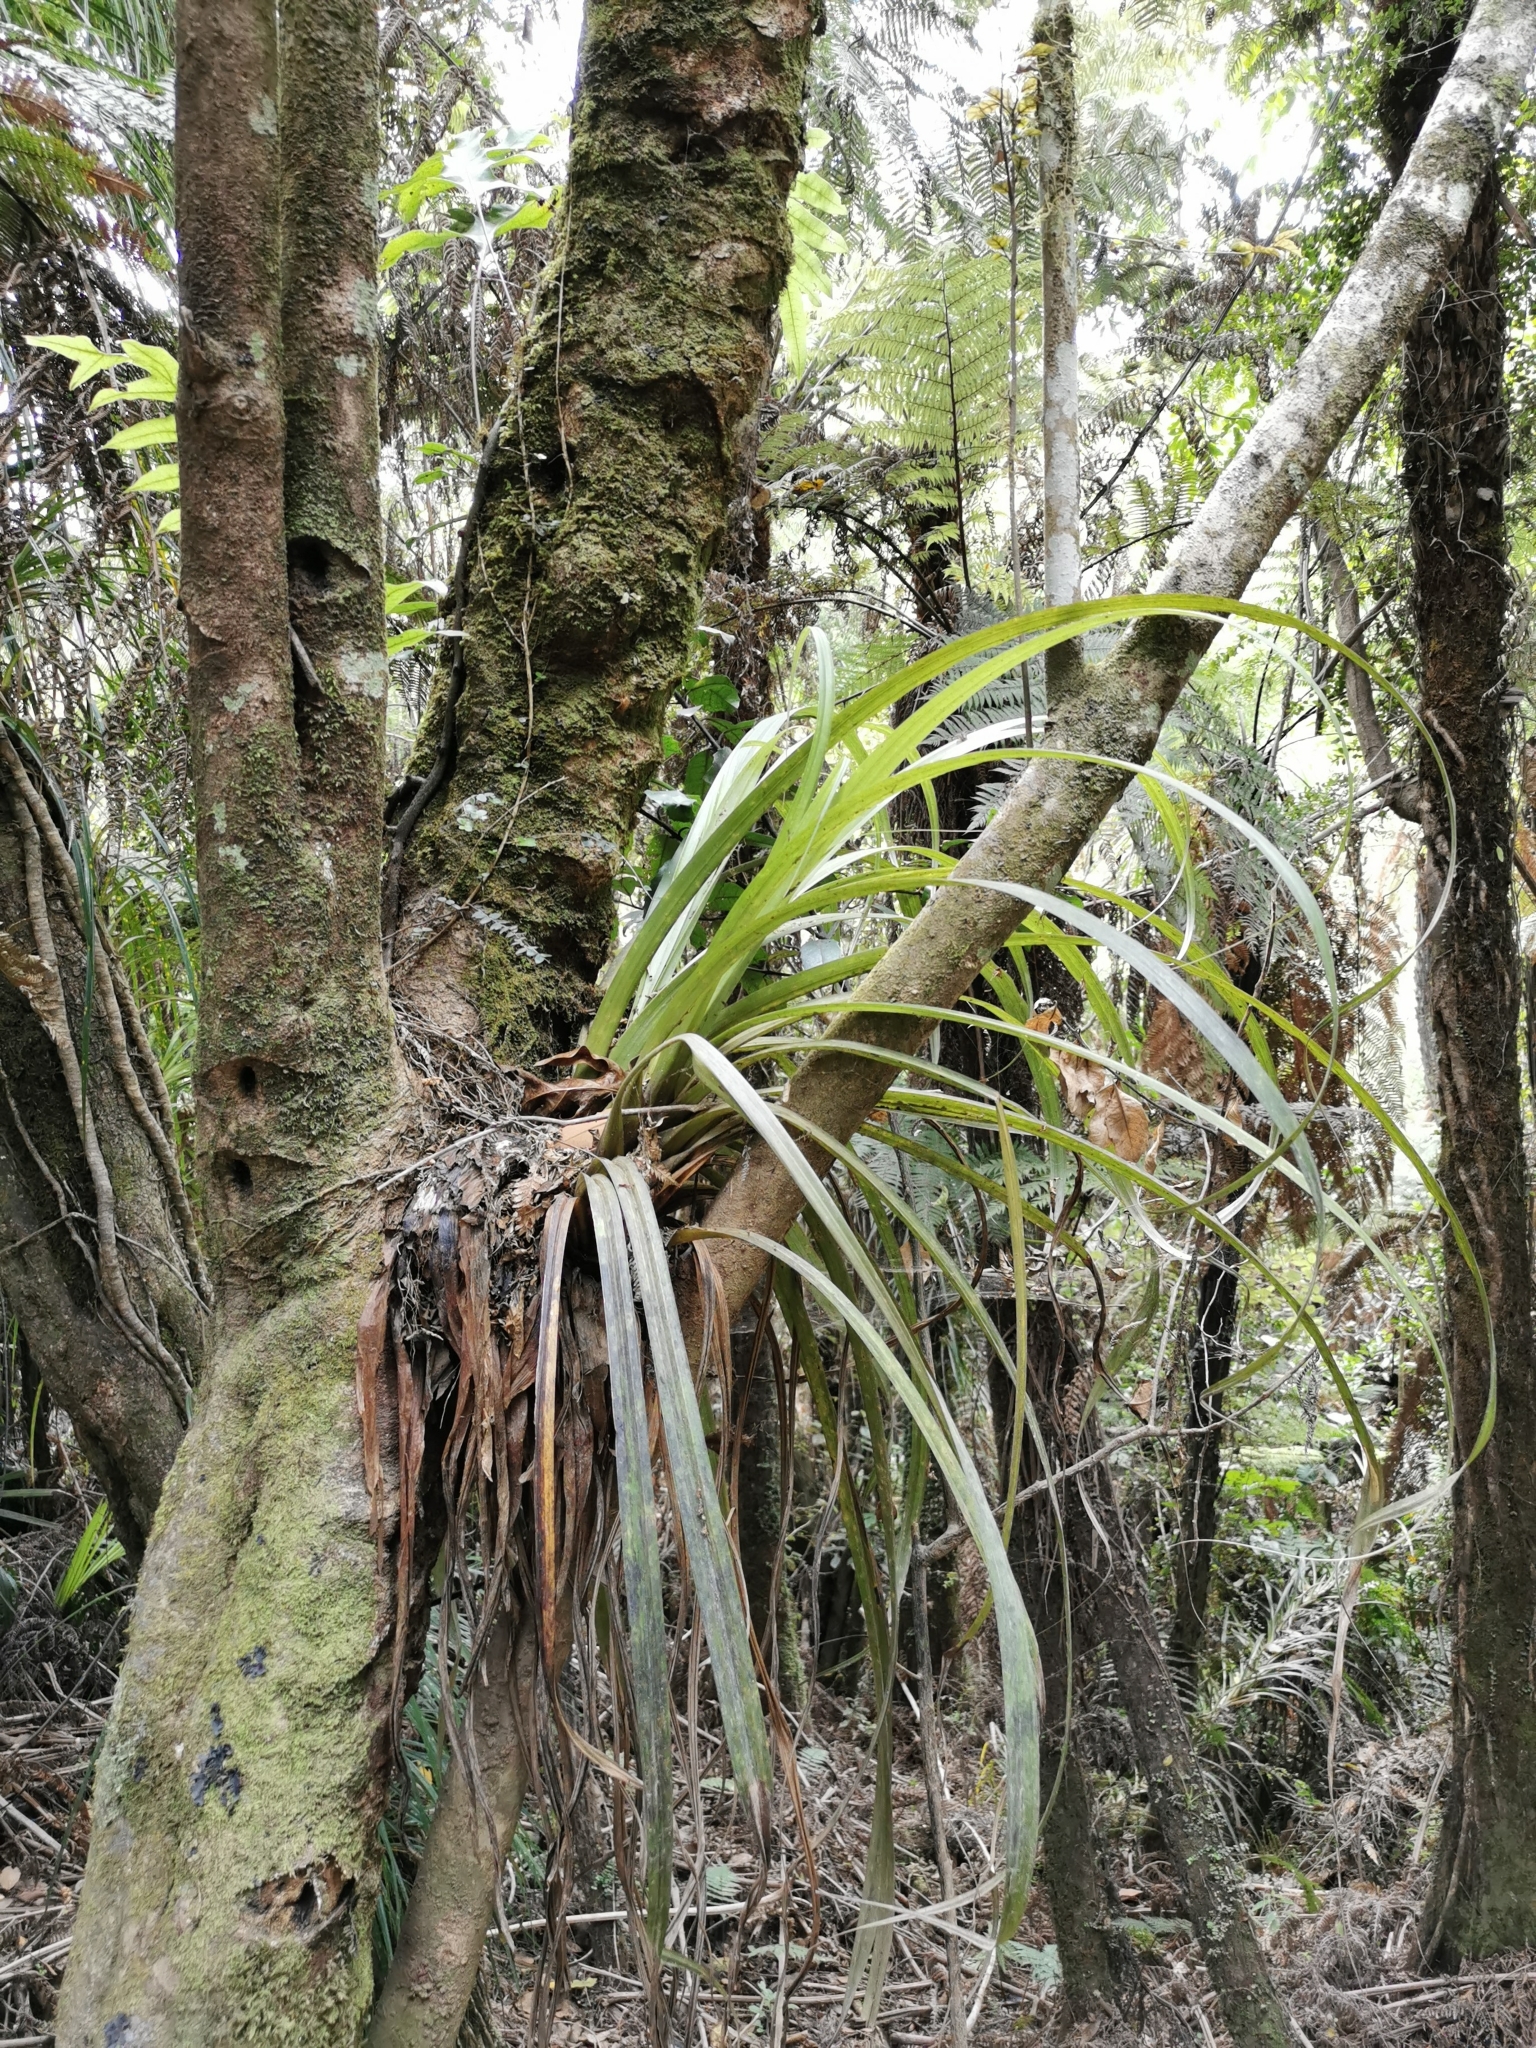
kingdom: Plantae
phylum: Tracheophyta
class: Liliopsida
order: Asparagales
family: Asteliaceae
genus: Astelia
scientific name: Astelia hastata
